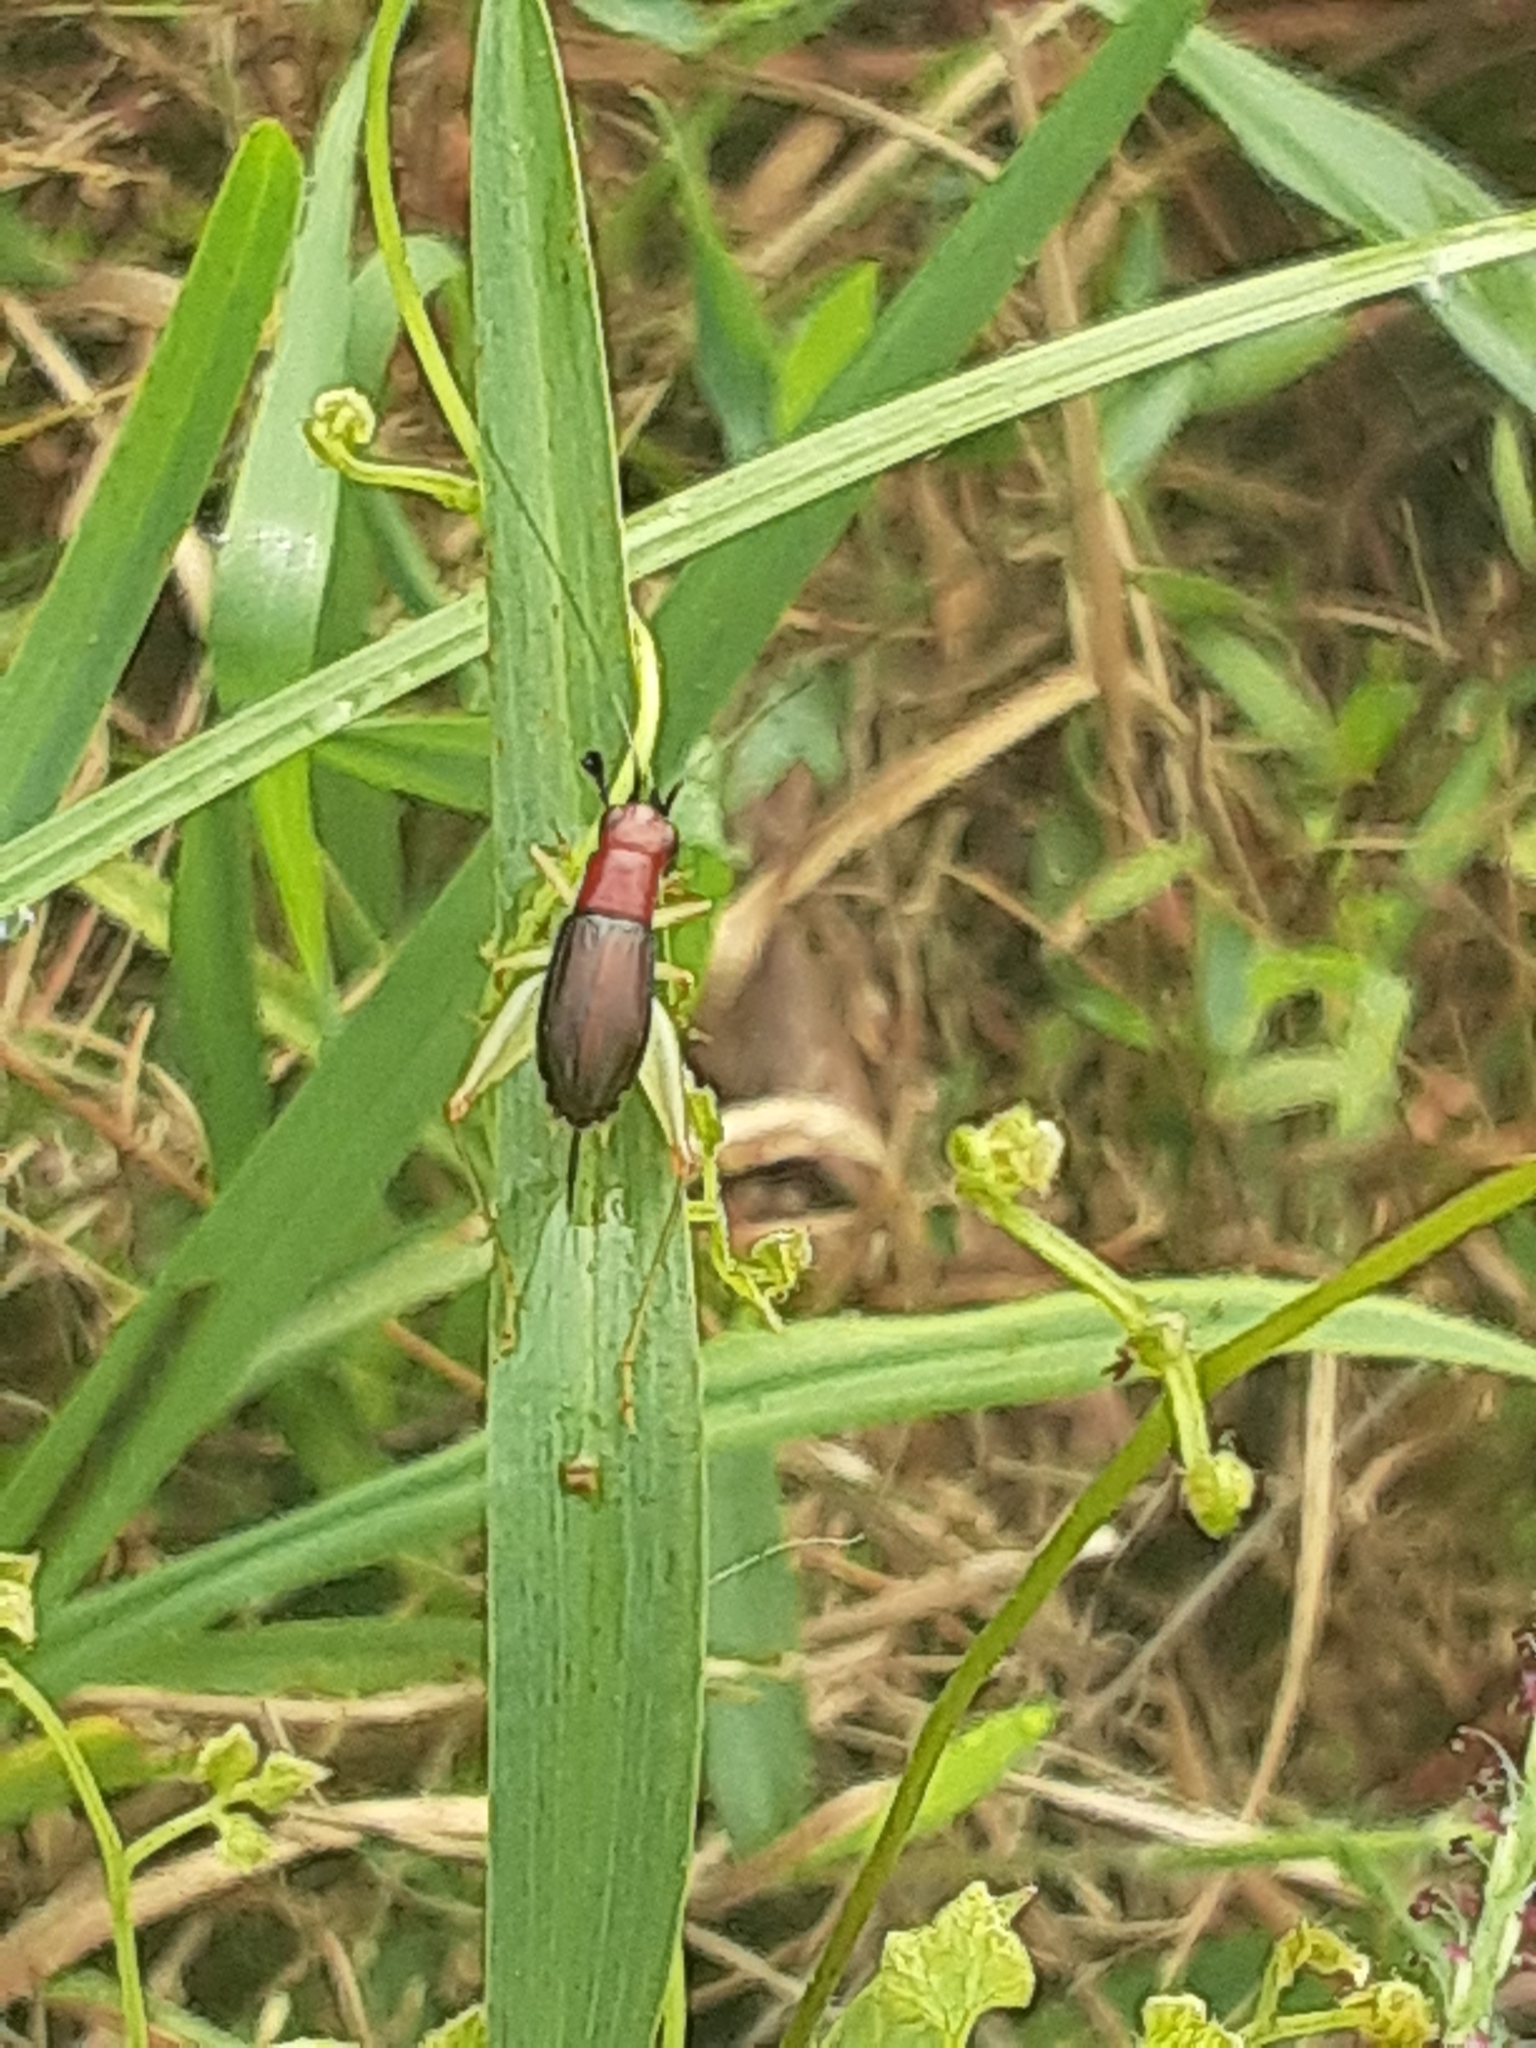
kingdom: Animalia
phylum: Arthropoda
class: Insecta
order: Orthoptera
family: Trigonidiidae
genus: Phyllopalpus
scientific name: Phyllopalpus pulchellus
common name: Handsome trig
